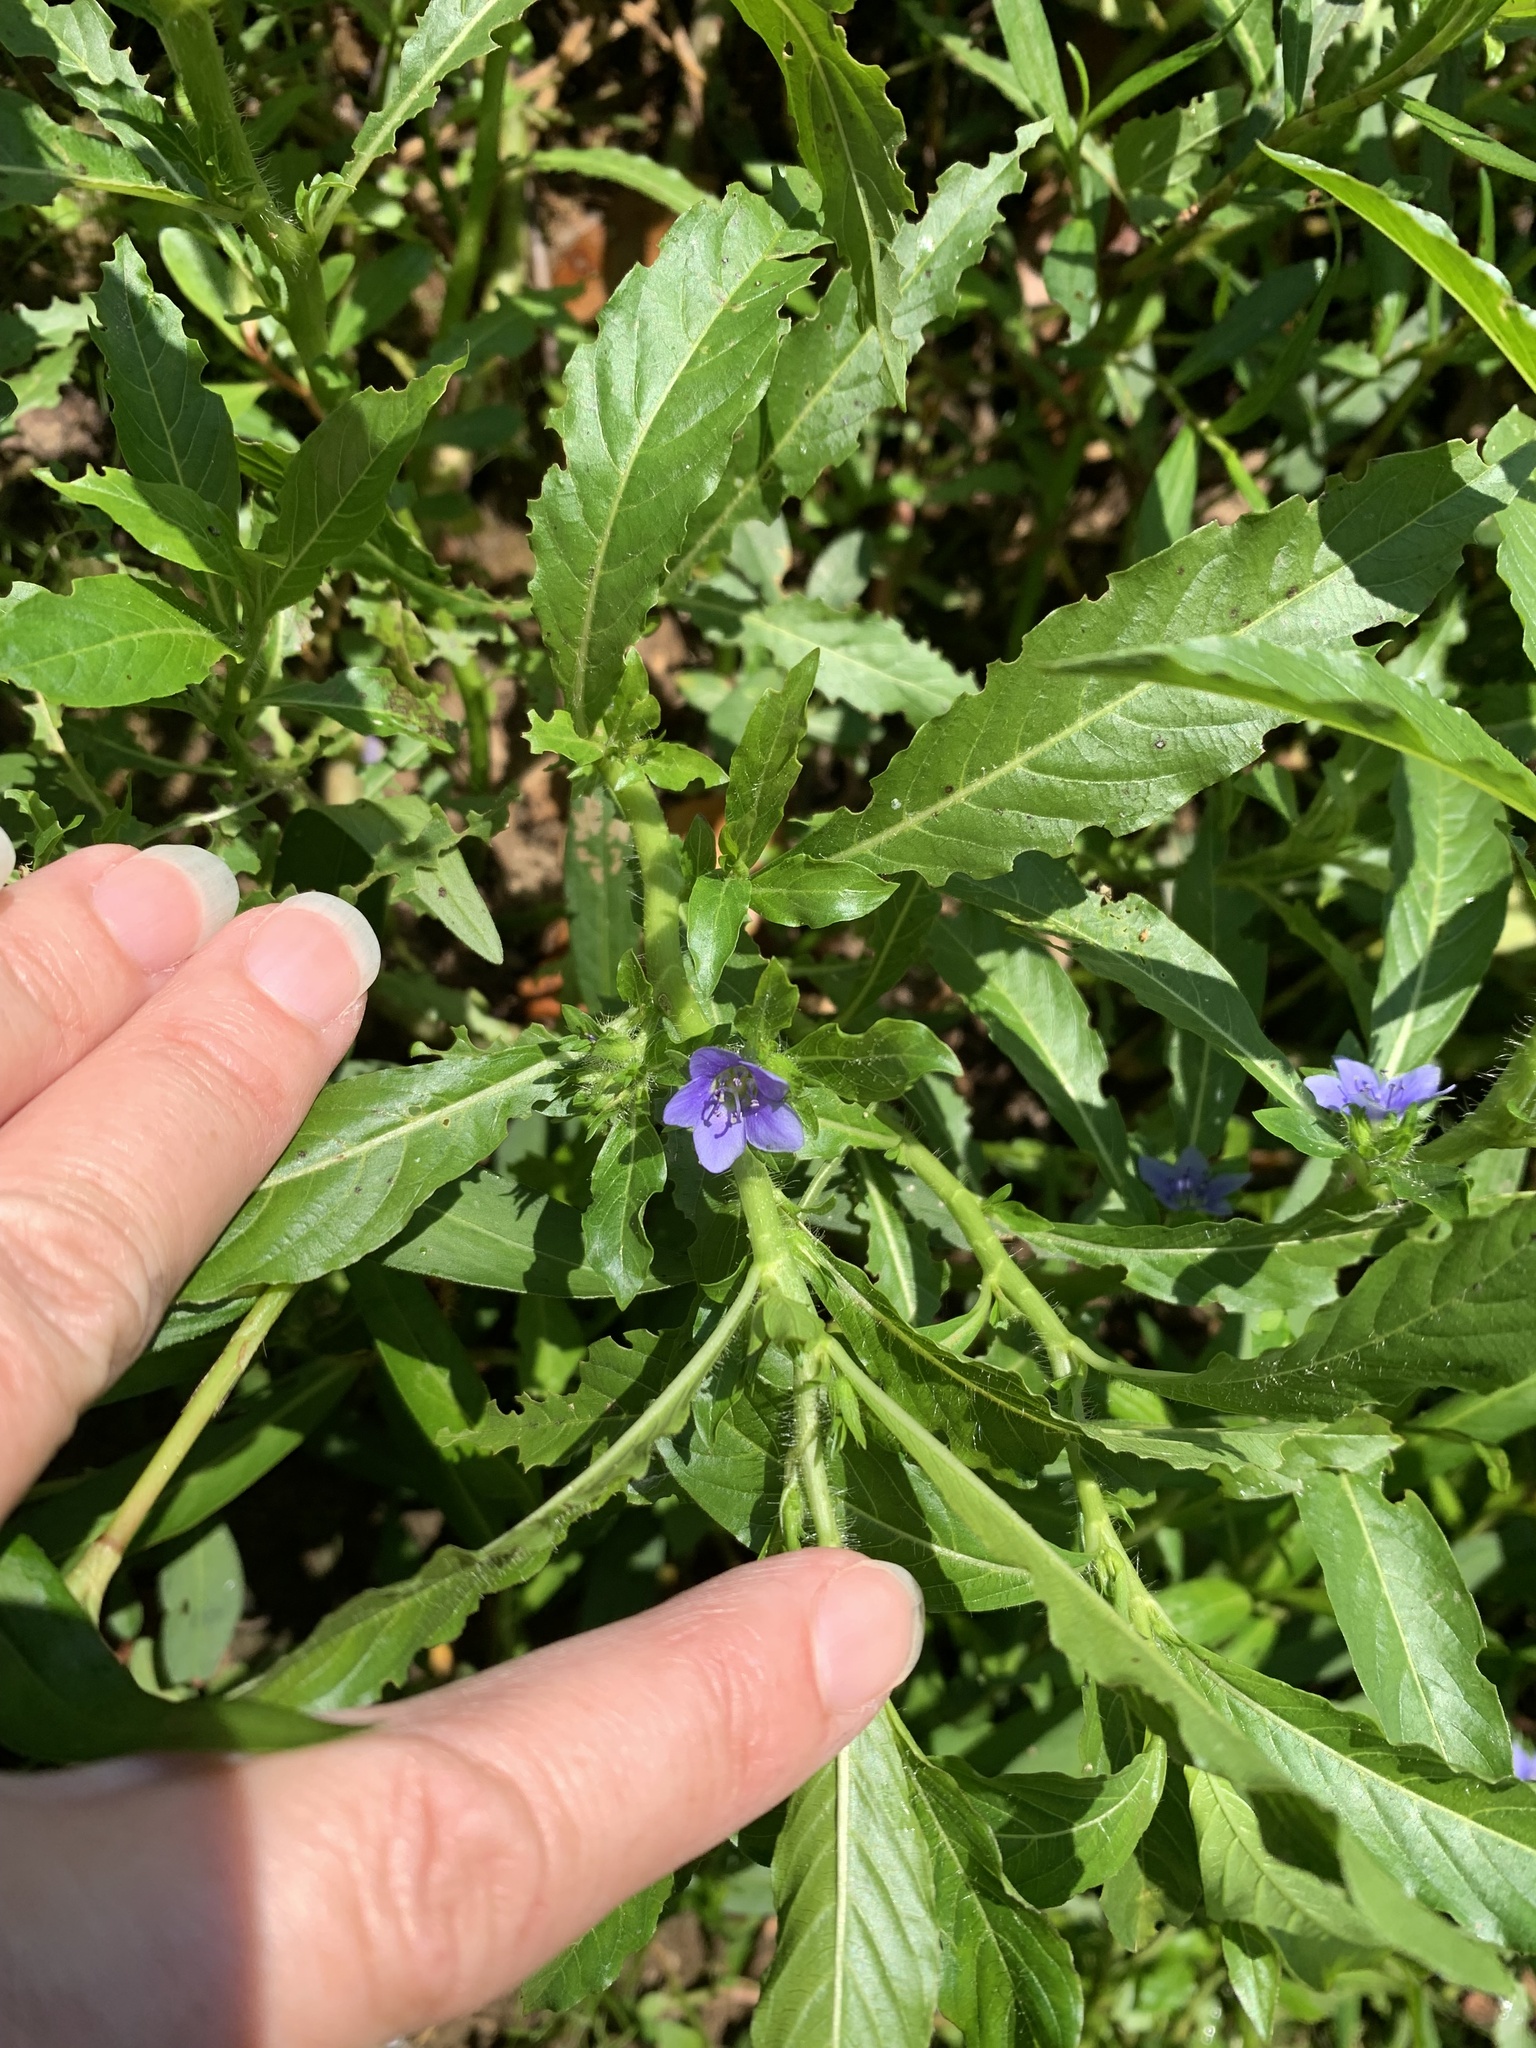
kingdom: Plantae
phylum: Tracheophyta
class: Magnoliopsida
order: Solanales
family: Hydroleaceae
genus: Hydrolea
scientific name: Hydrolea quadrivalvis
